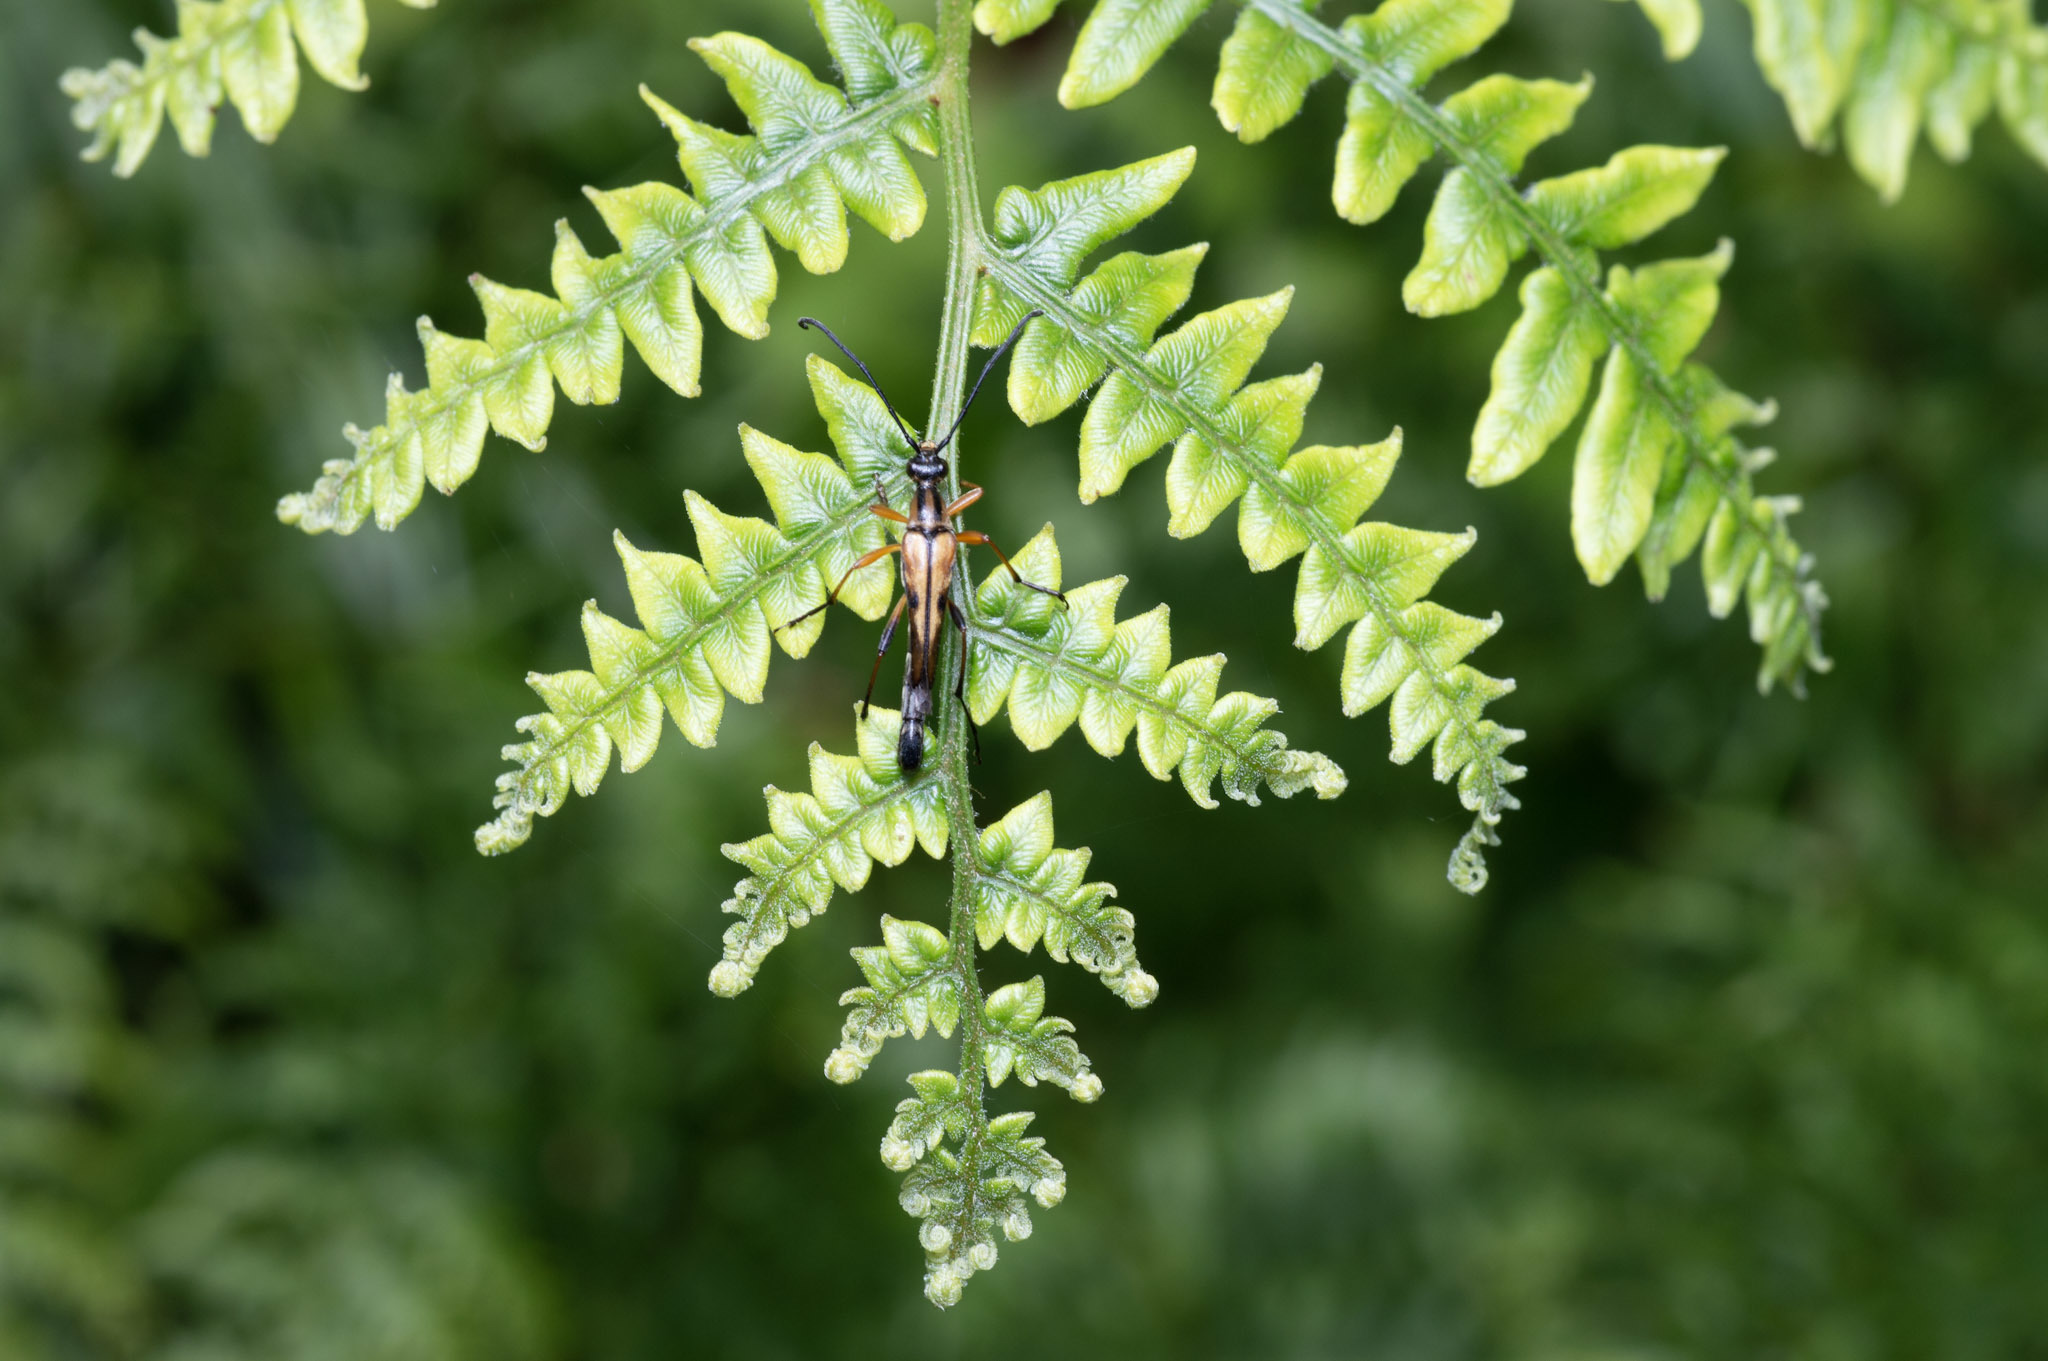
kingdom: Animalia
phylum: Arthropoda
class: Insecta
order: Coleoptera
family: Cerambycidae
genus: Strangalia
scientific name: Strangalia famelica
